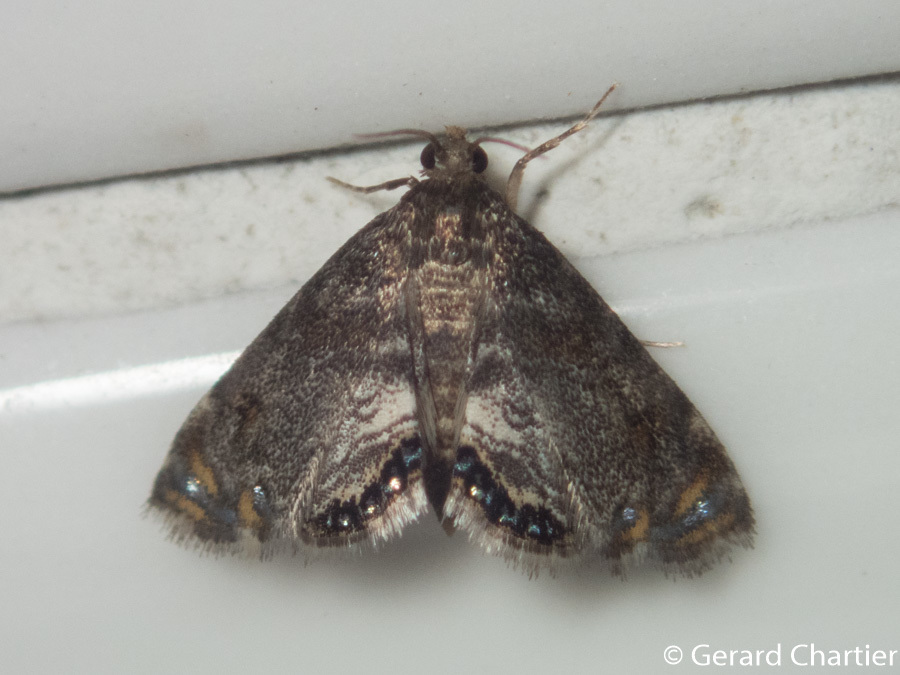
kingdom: Animalia
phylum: Arthropoda
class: Insecta
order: Lepidoptera
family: Crambidae
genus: Paracataclysta
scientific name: Paracataclysta fuscalis
